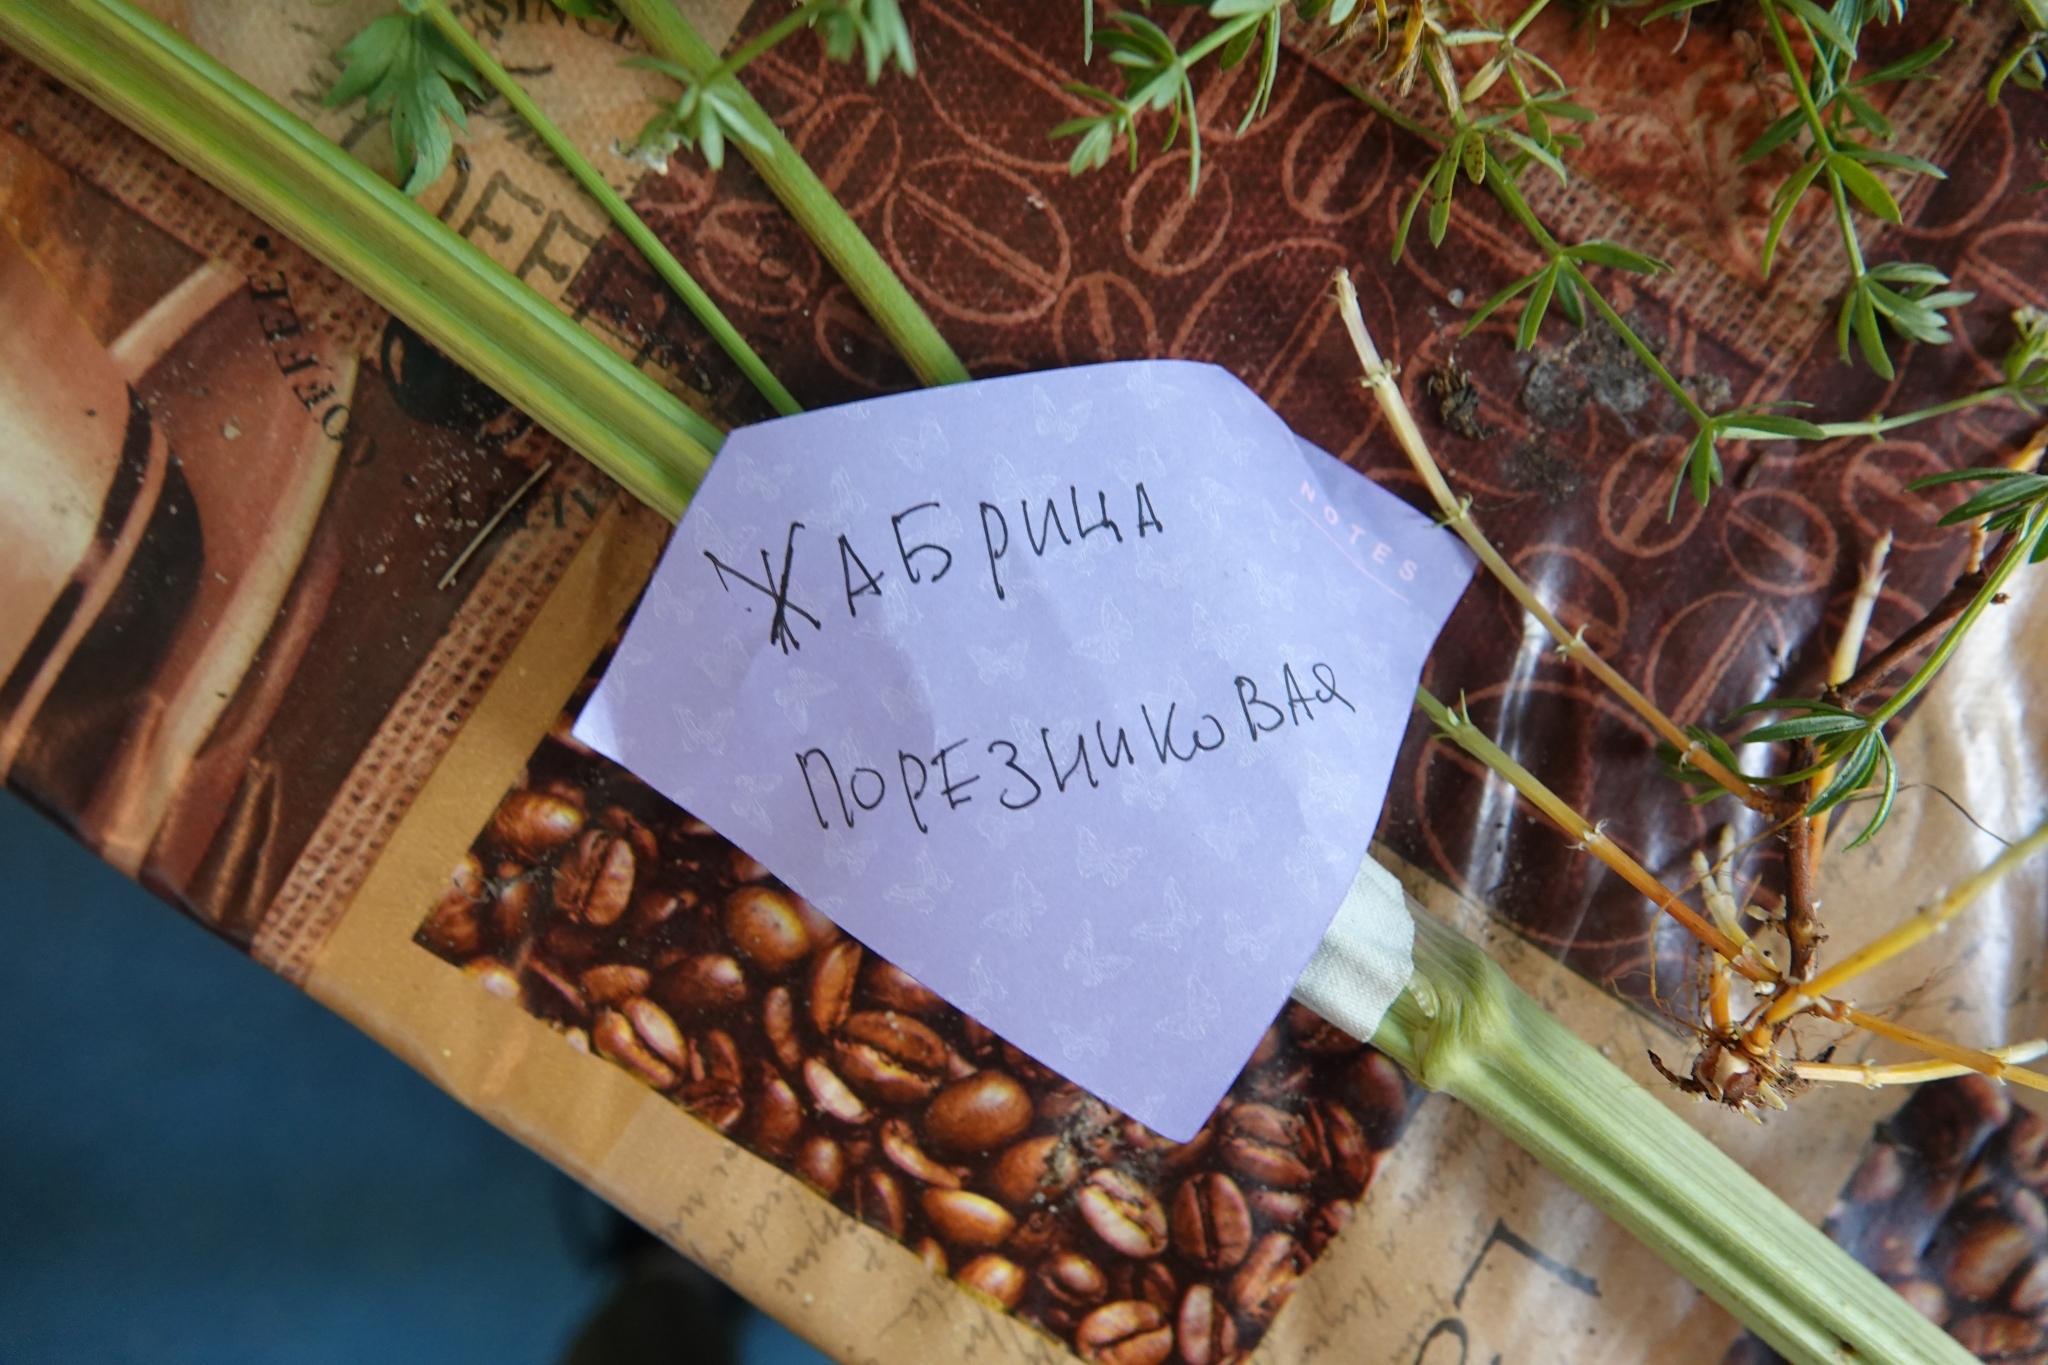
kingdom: Plantae
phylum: Tracheophyta
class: Magnoliopsida
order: Apiales
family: Apiaceae
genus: Seseli
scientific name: Seseli libanotis
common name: Mooncarrot
